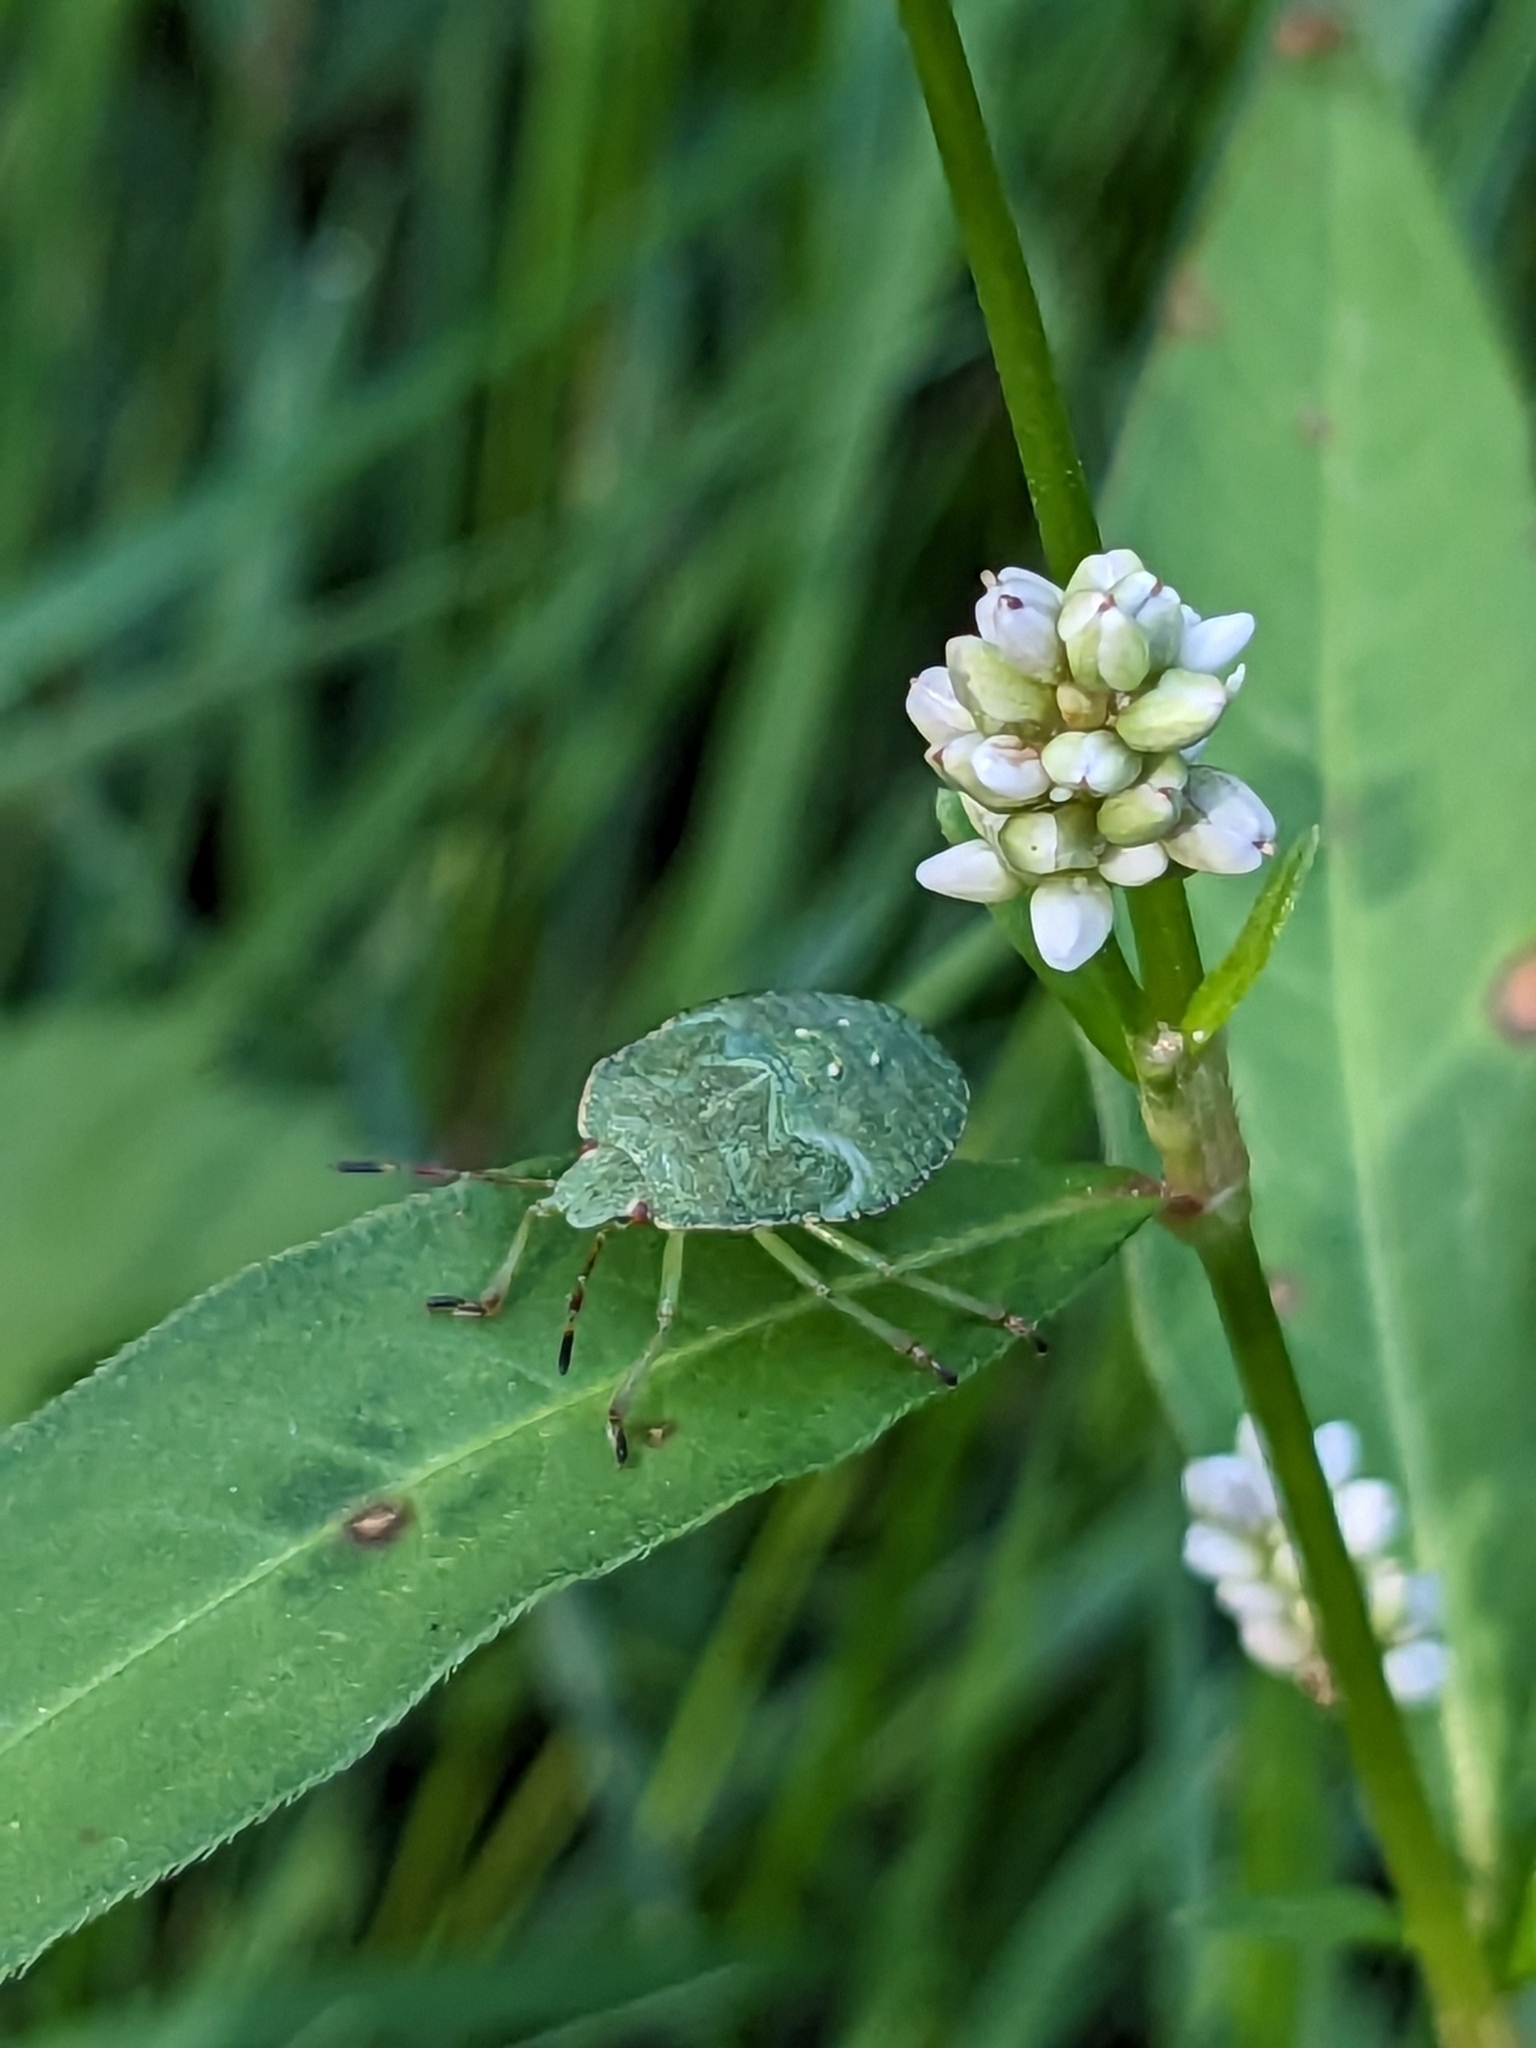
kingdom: Animalia
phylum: Arthropoda
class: Insecta
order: Hemiptera
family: Pentatomidae
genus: Palomena
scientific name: Palomena prasina
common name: Green shieldbug
